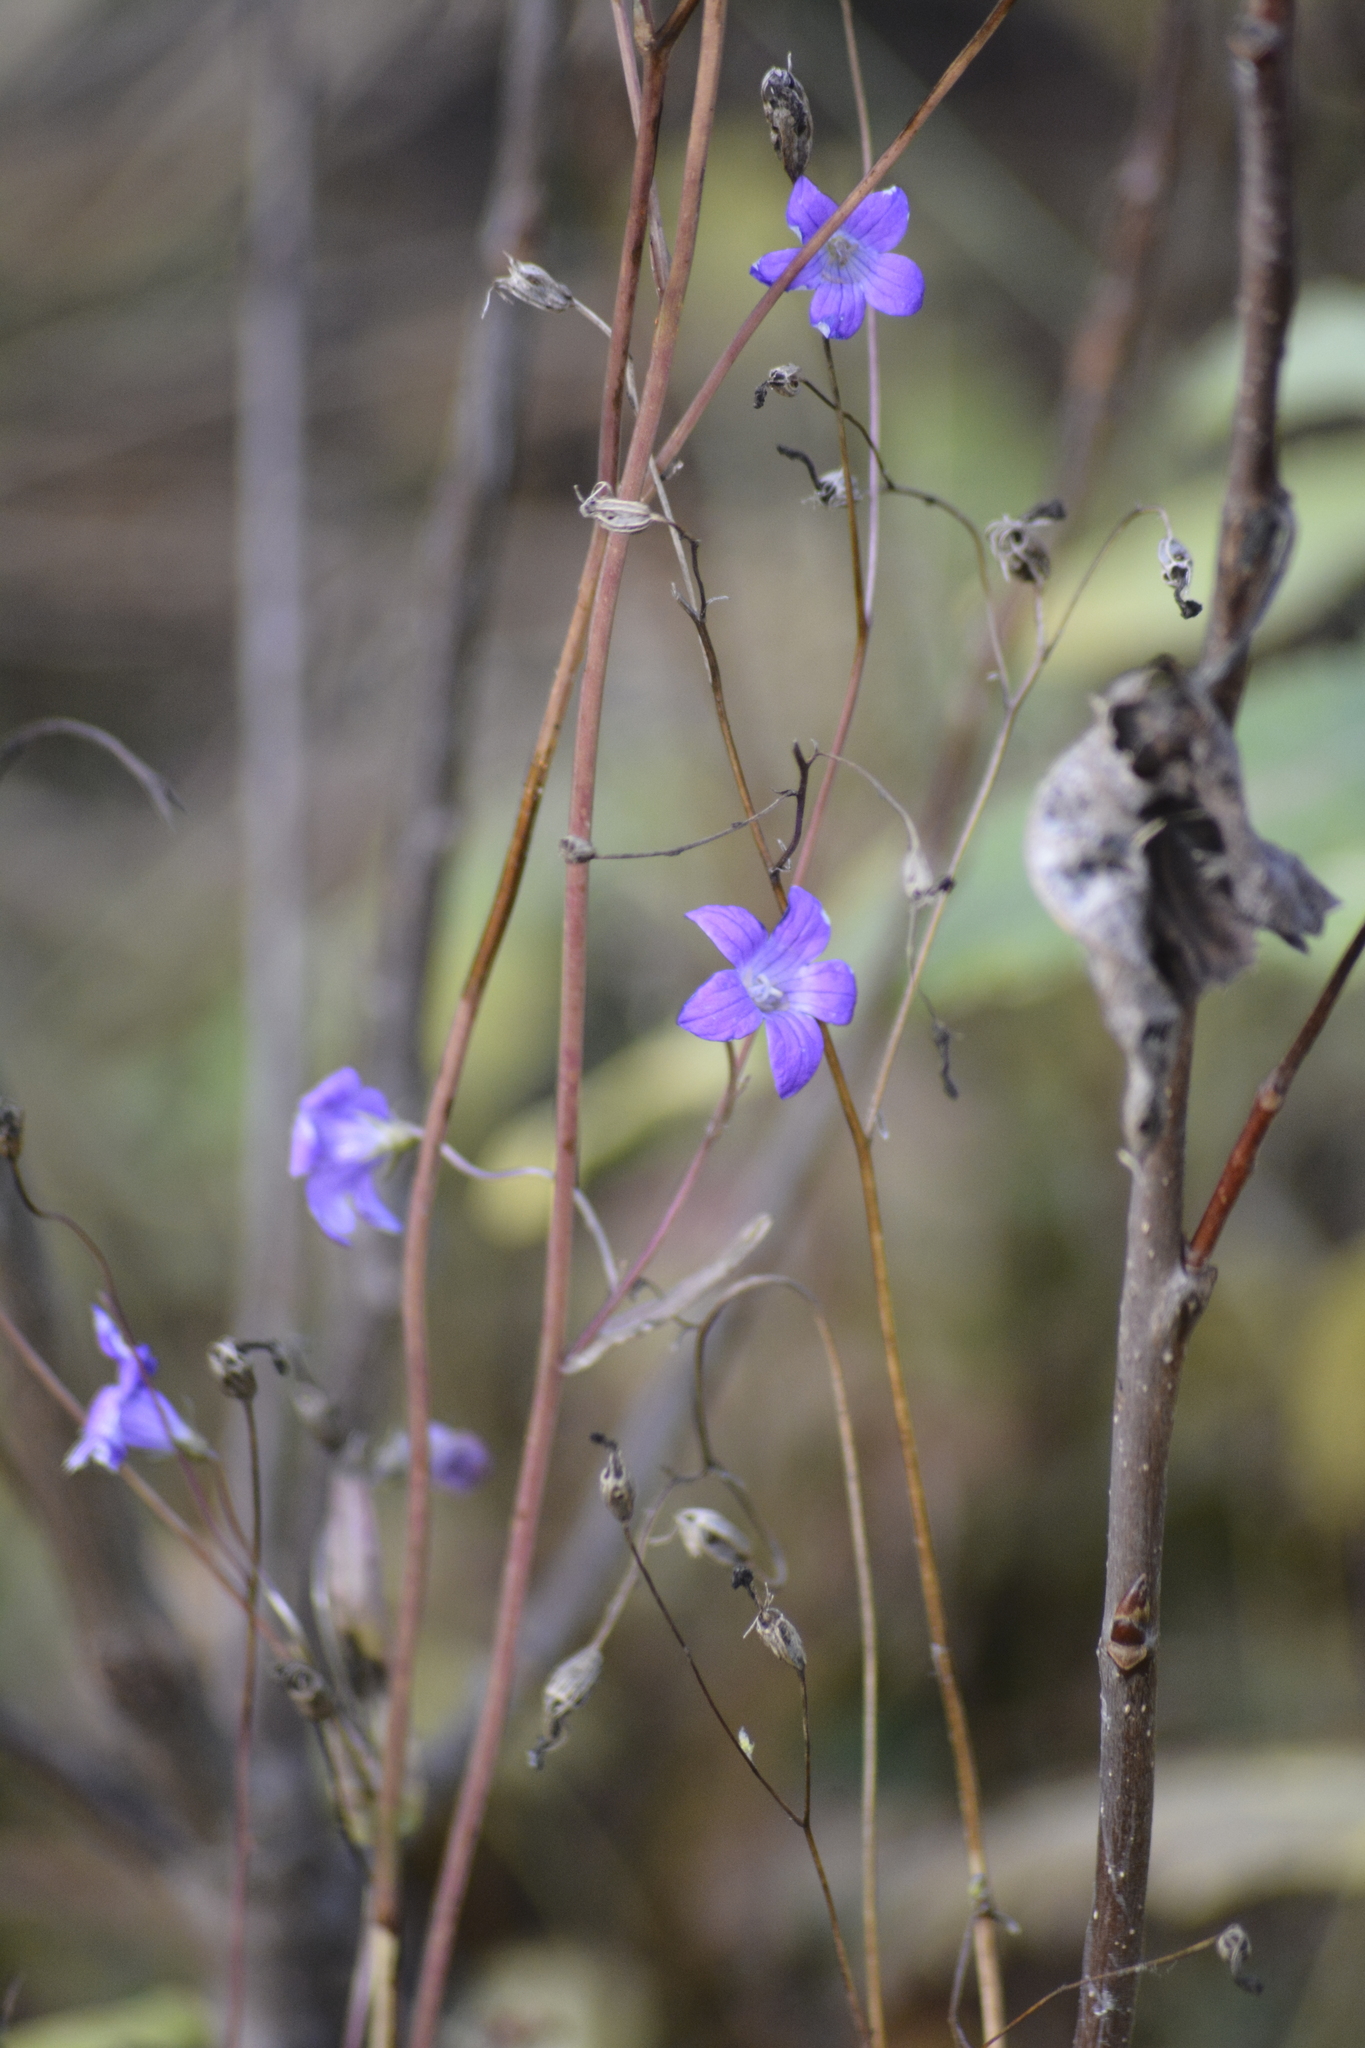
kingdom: Plantae
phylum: Tracheophyta
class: Magnoliopsida
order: Asterales
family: Campanulaceae
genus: Campanula
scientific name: Campanula patula
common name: Spreading bellflower
